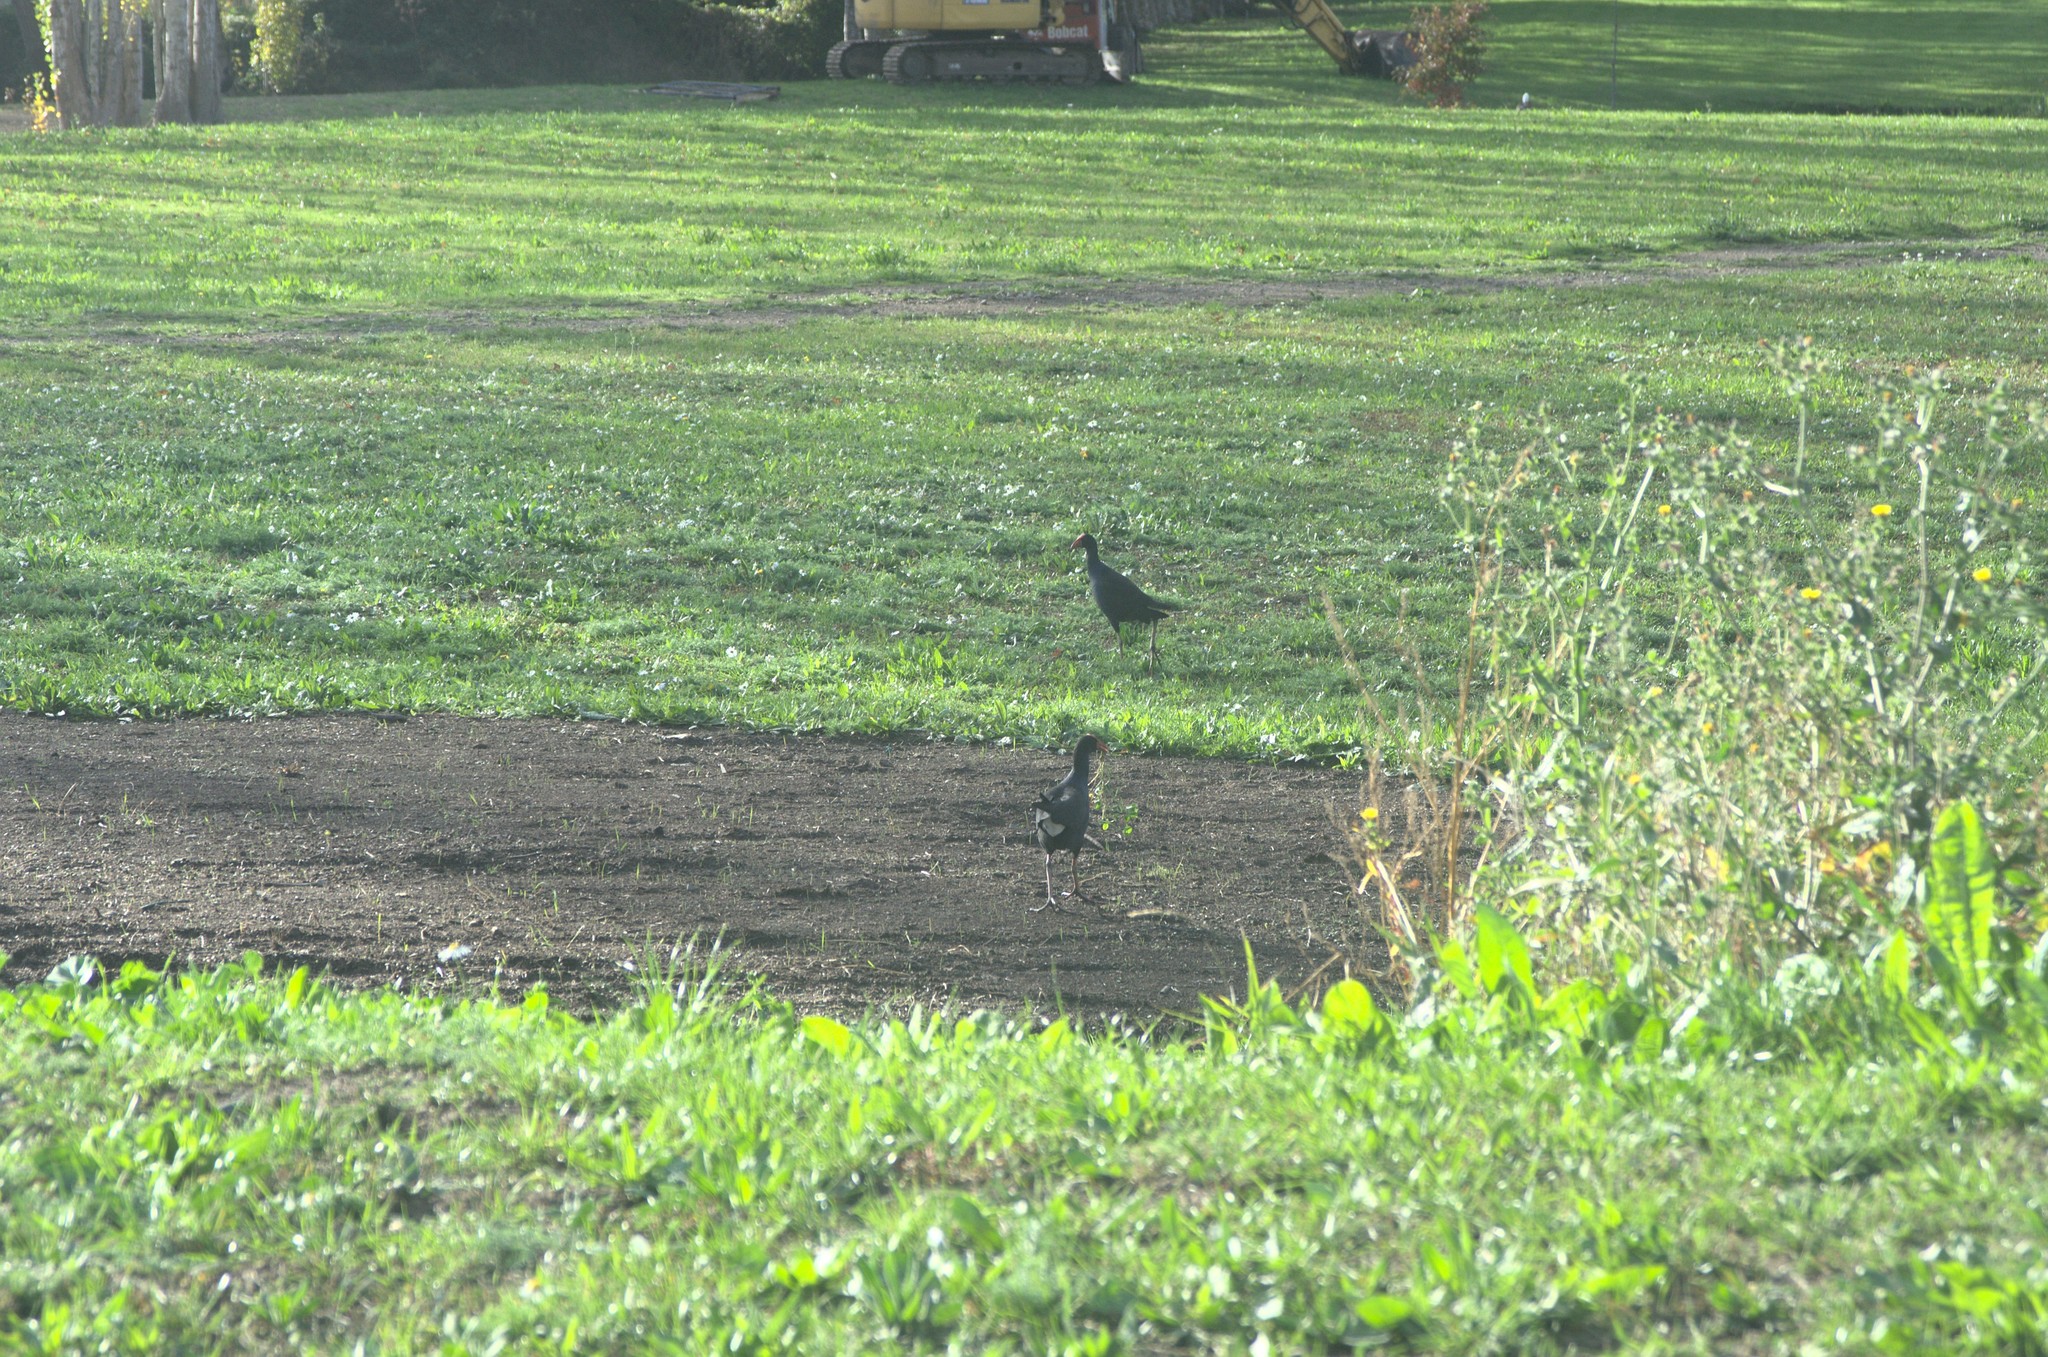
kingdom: Animalia
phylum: Chordata
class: Aves
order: Gruiformes
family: Rallidae
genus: Porphyrio
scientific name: Porphyrio melanotus
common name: Australasian swamphen
